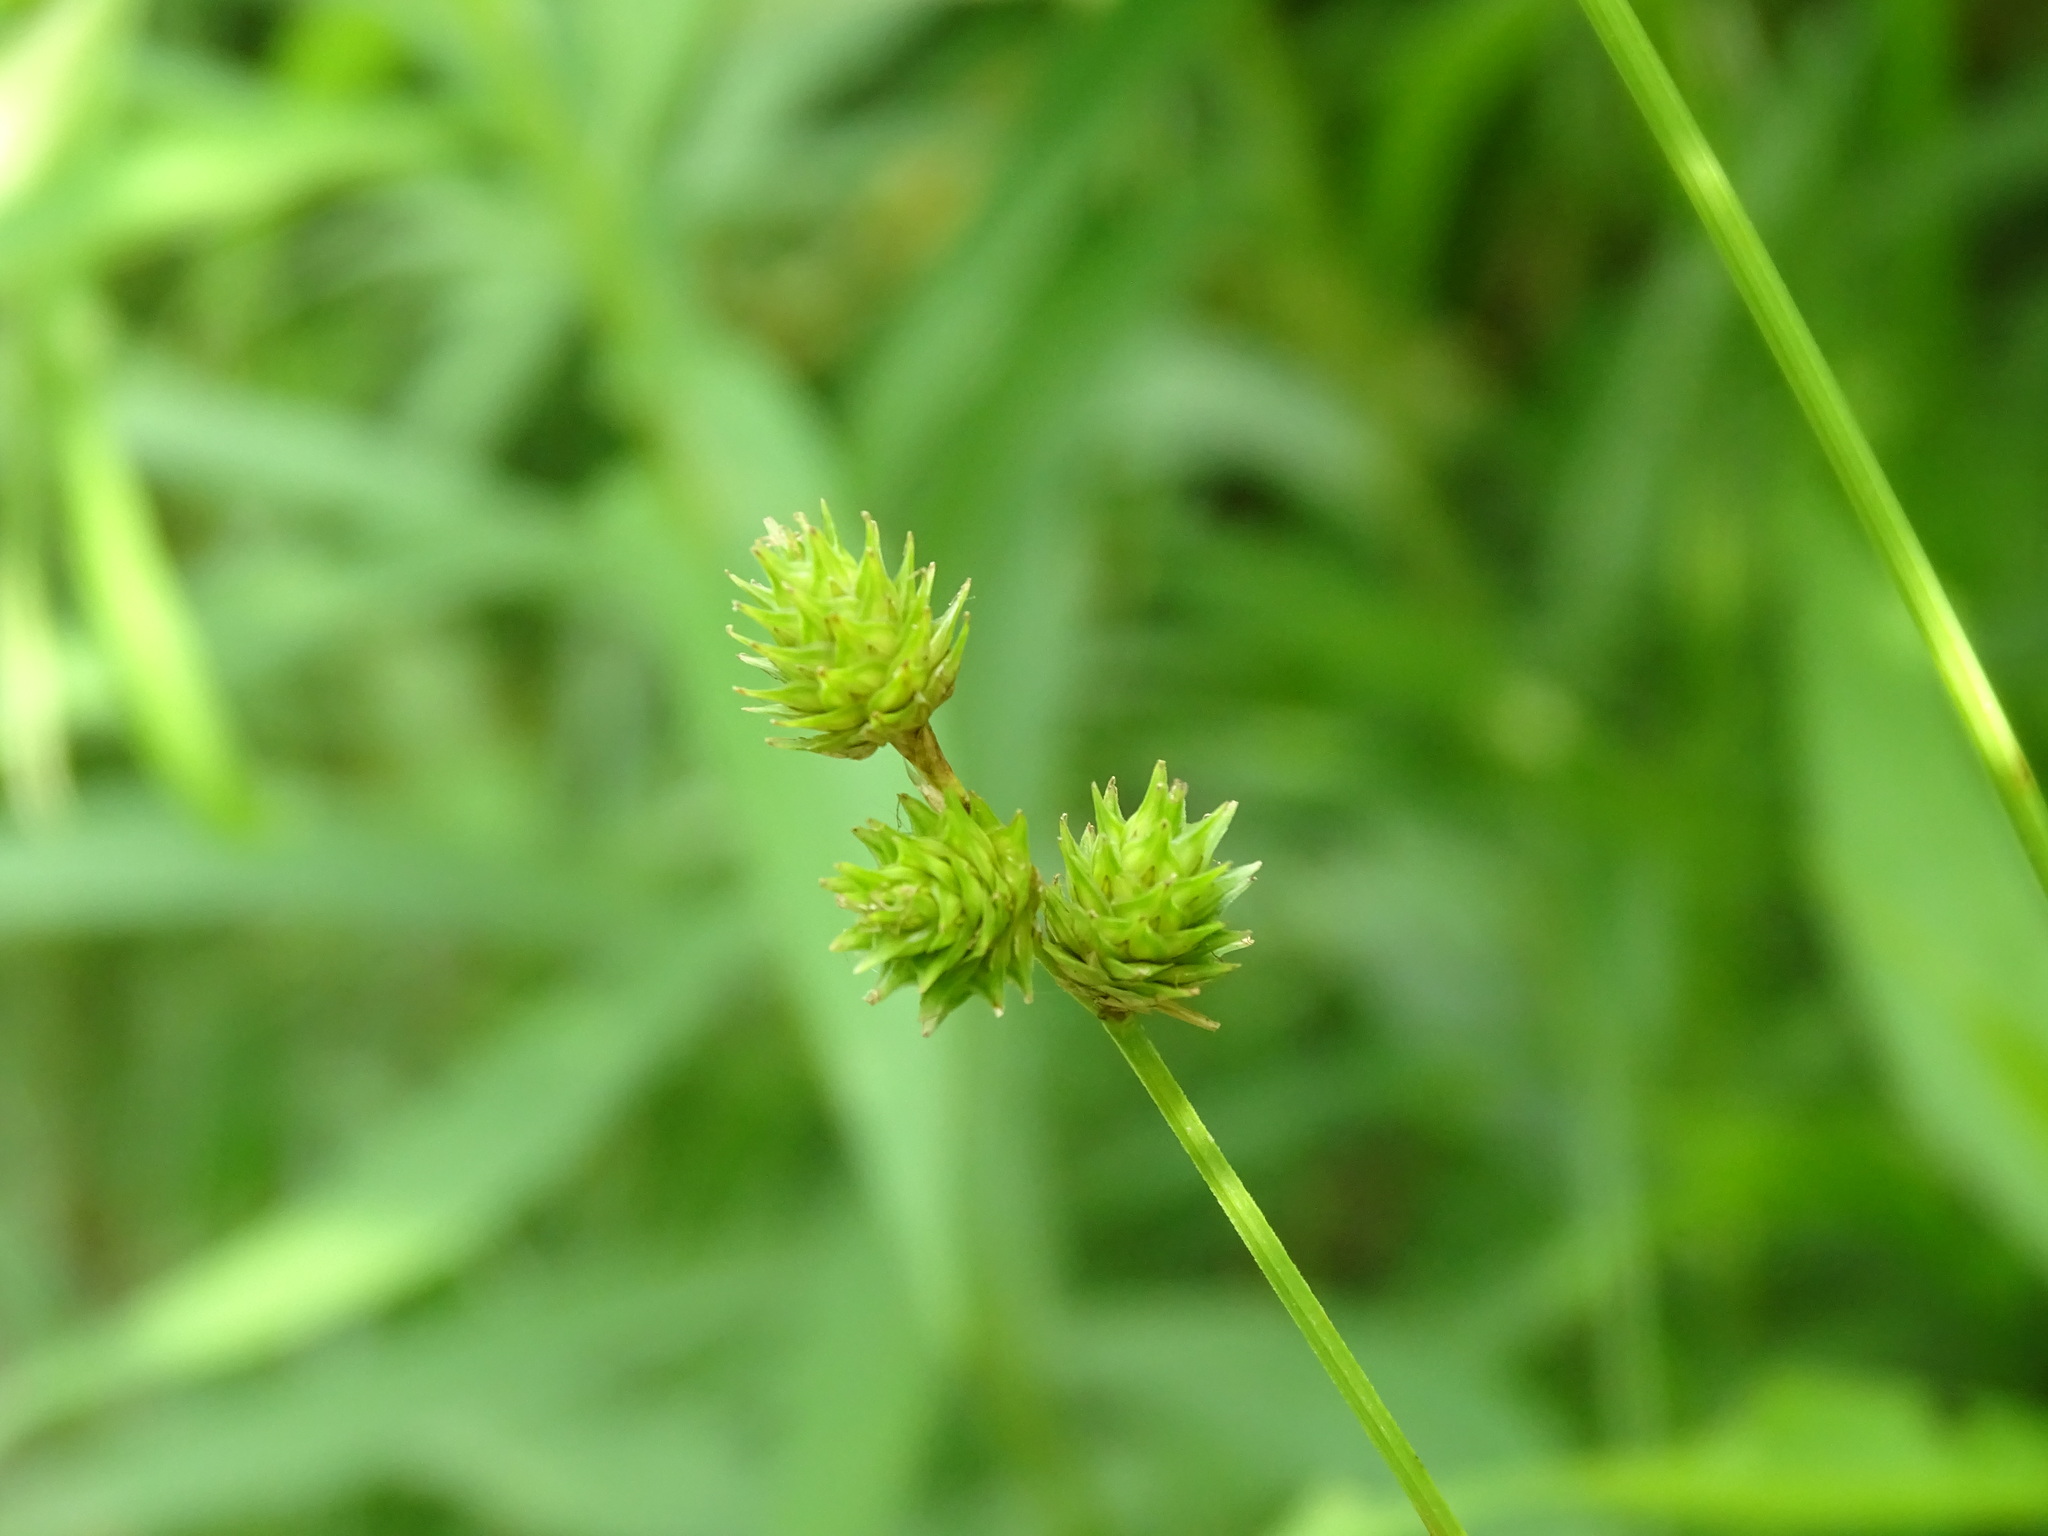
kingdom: Plantae
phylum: Tracheophyta
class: Liliopsida
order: Poales
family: Cyperaceae
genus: Carex
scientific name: Carex molesta
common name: Troublesome sedge
